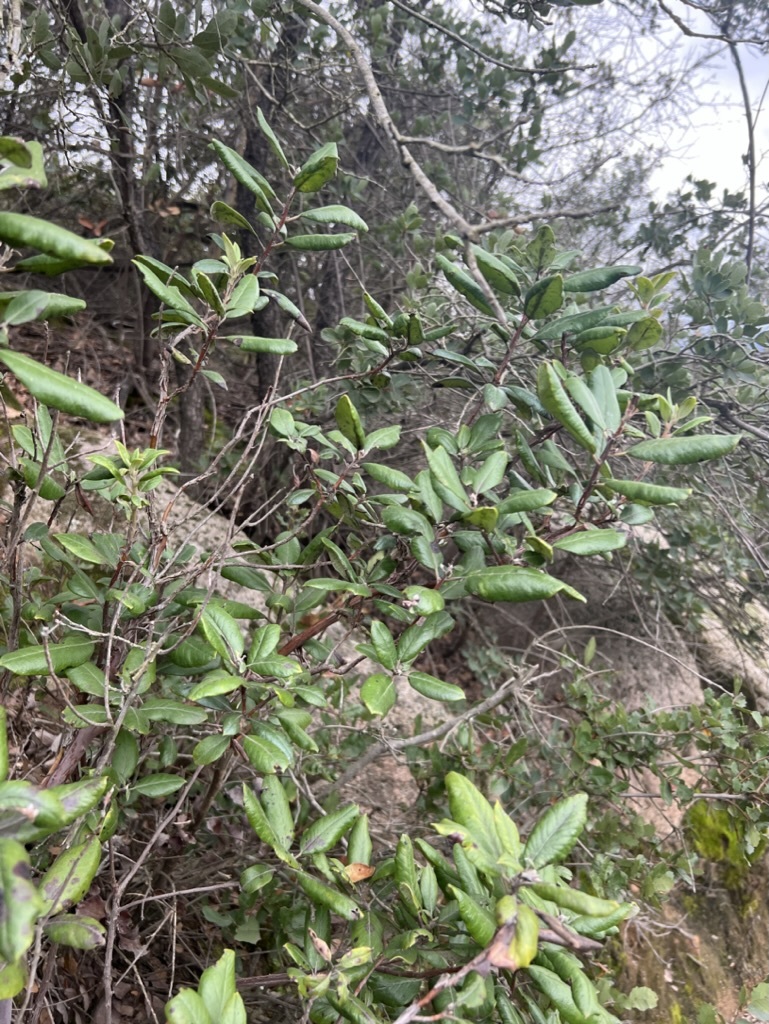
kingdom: Plantae
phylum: Tracheophyta
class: Magnoliopsida
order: Ericales
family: Ericaceae
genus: Arctostaphylos
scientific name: Arctostaphylos bicolor
